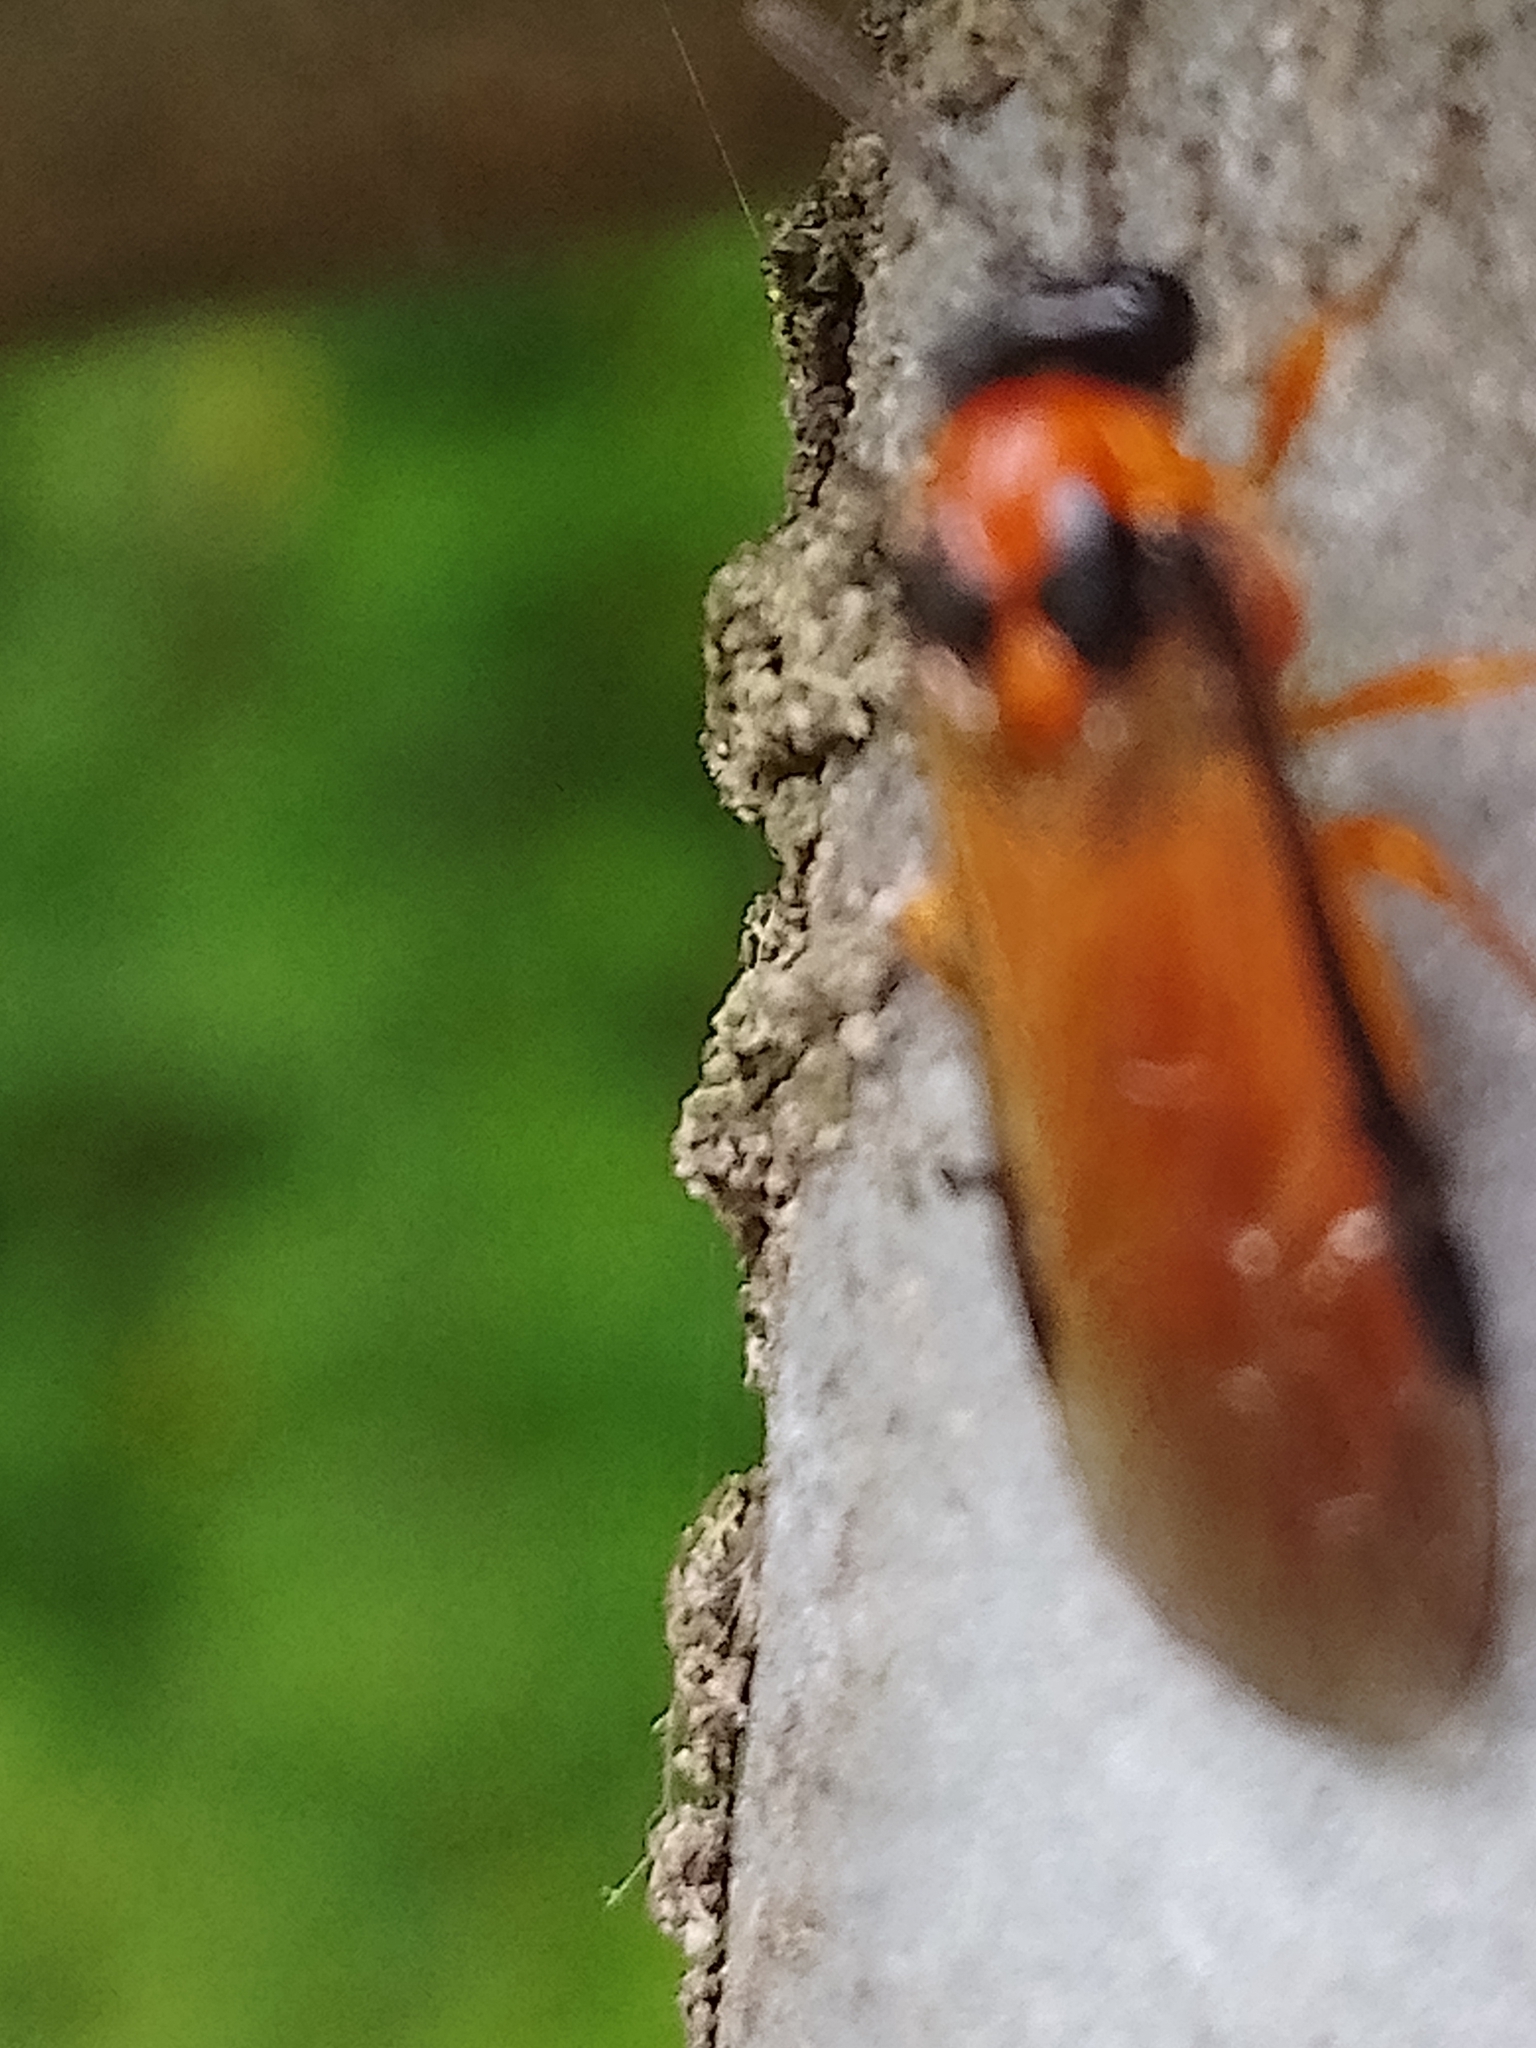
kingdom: Animalia
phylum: Arthropoda
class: Insecta
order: Hymenoptera
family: Tenthredinidae
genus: Athalia
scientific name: Athalia rosae
